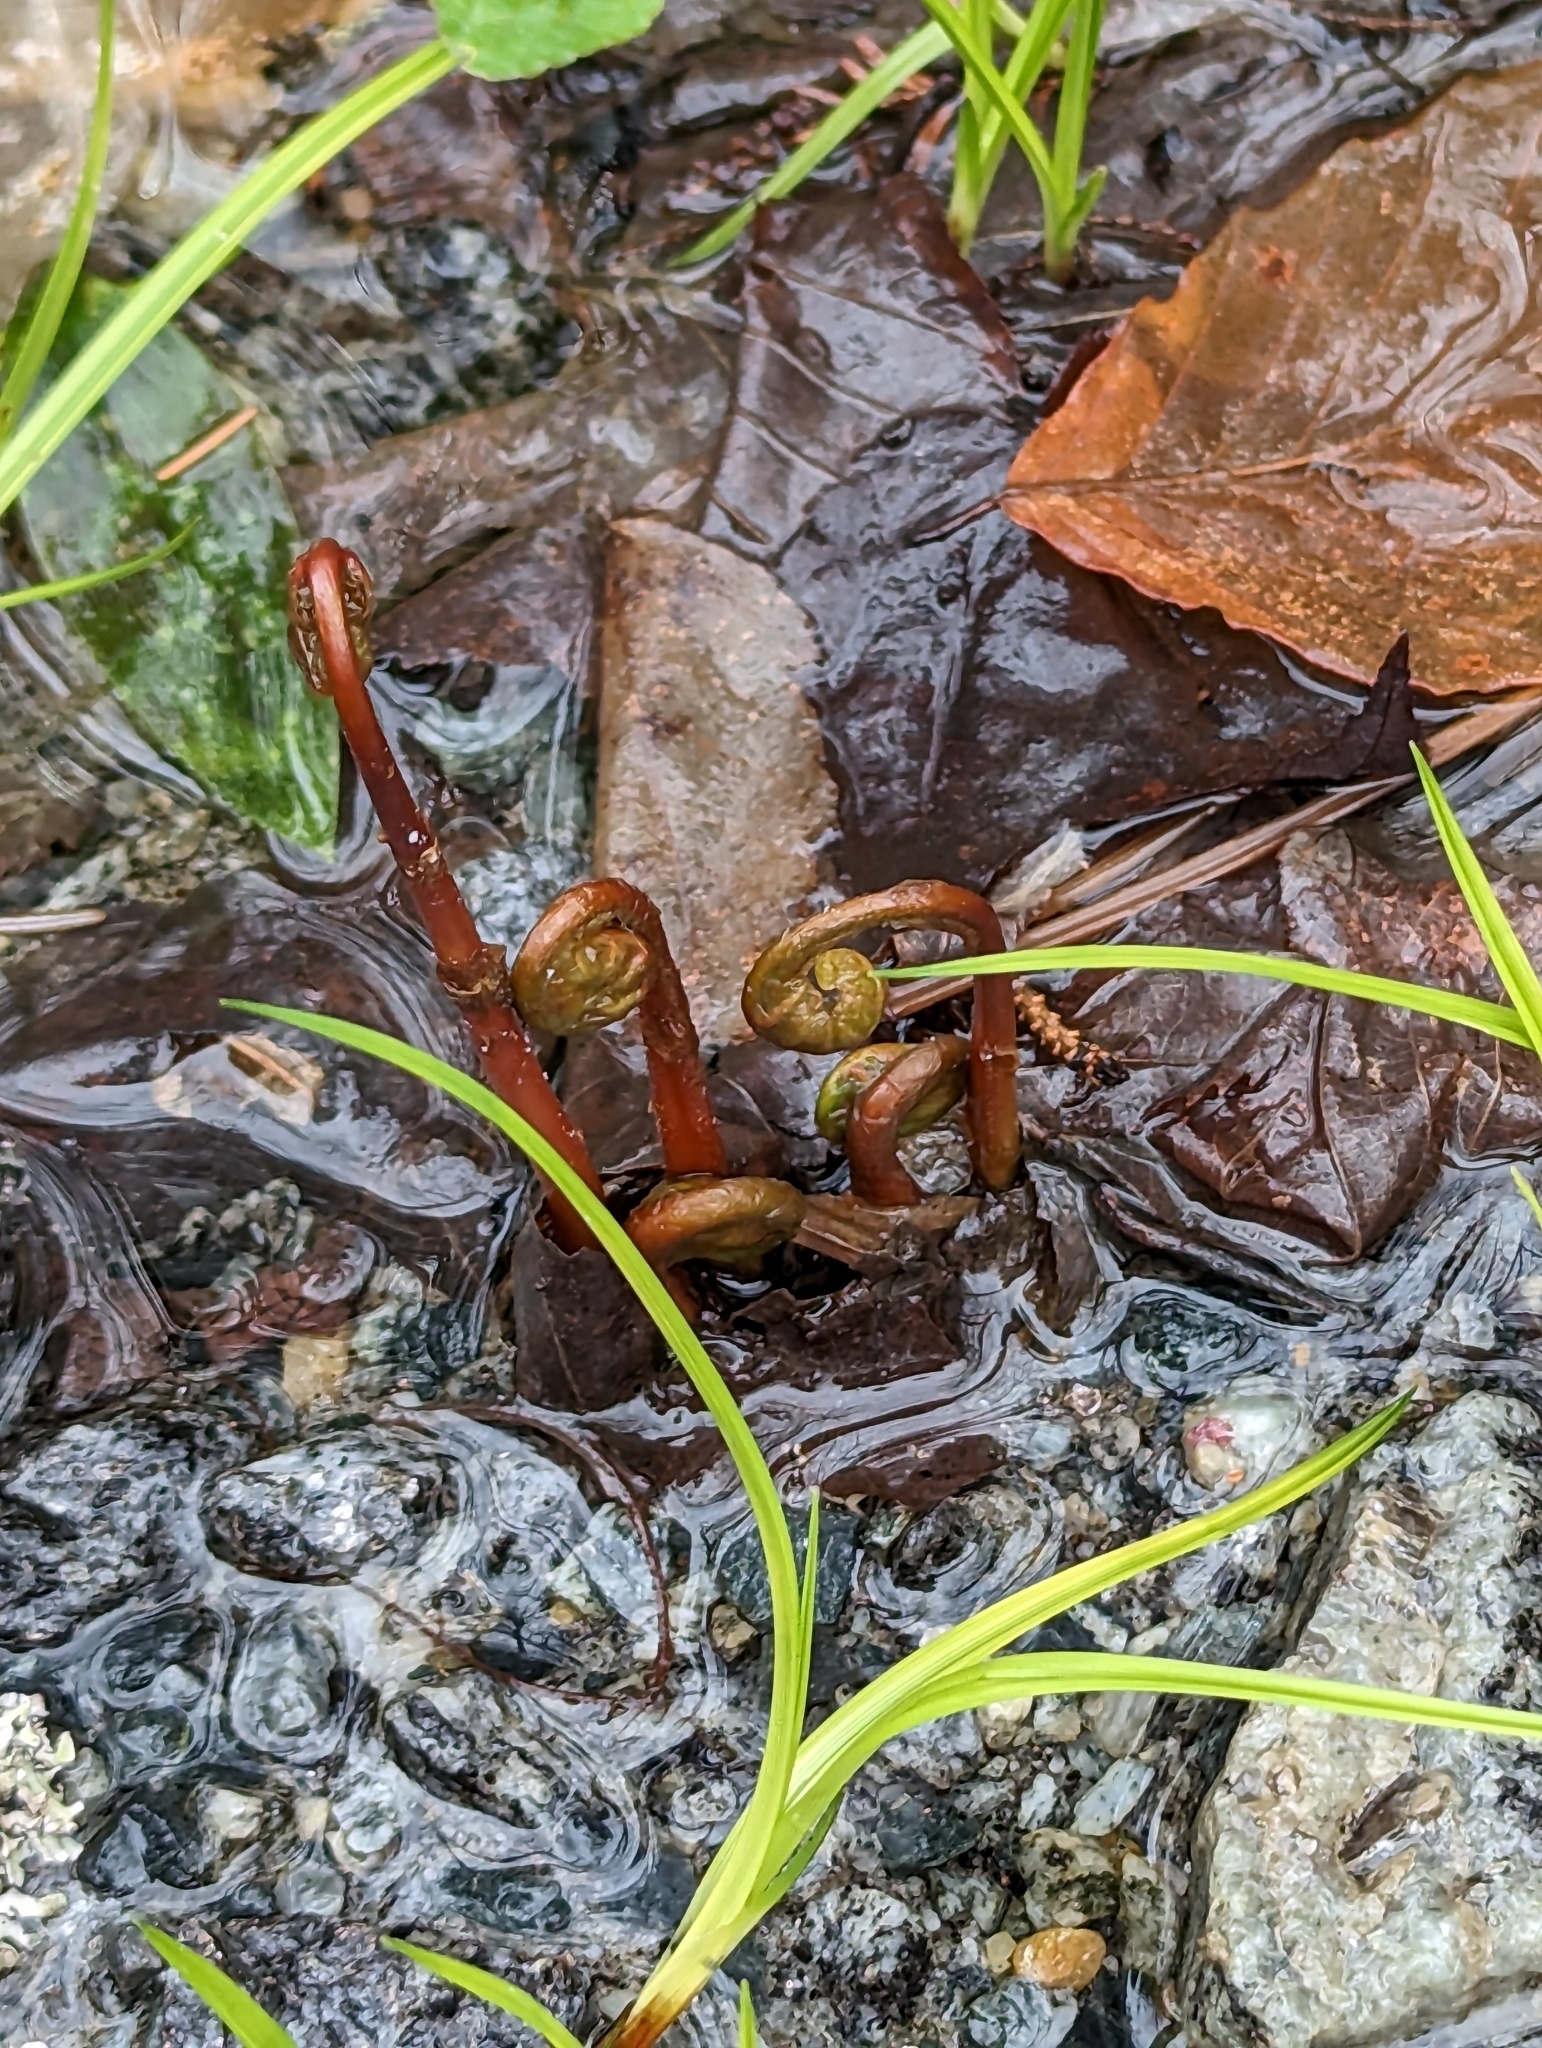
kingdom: Plantae
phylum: Tracheophyta
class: Polypodiopsida
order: Polypodiales
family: Onocleaceae
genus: Onoclea
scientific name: Onoclea sensibilis
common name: Sensitive fern
